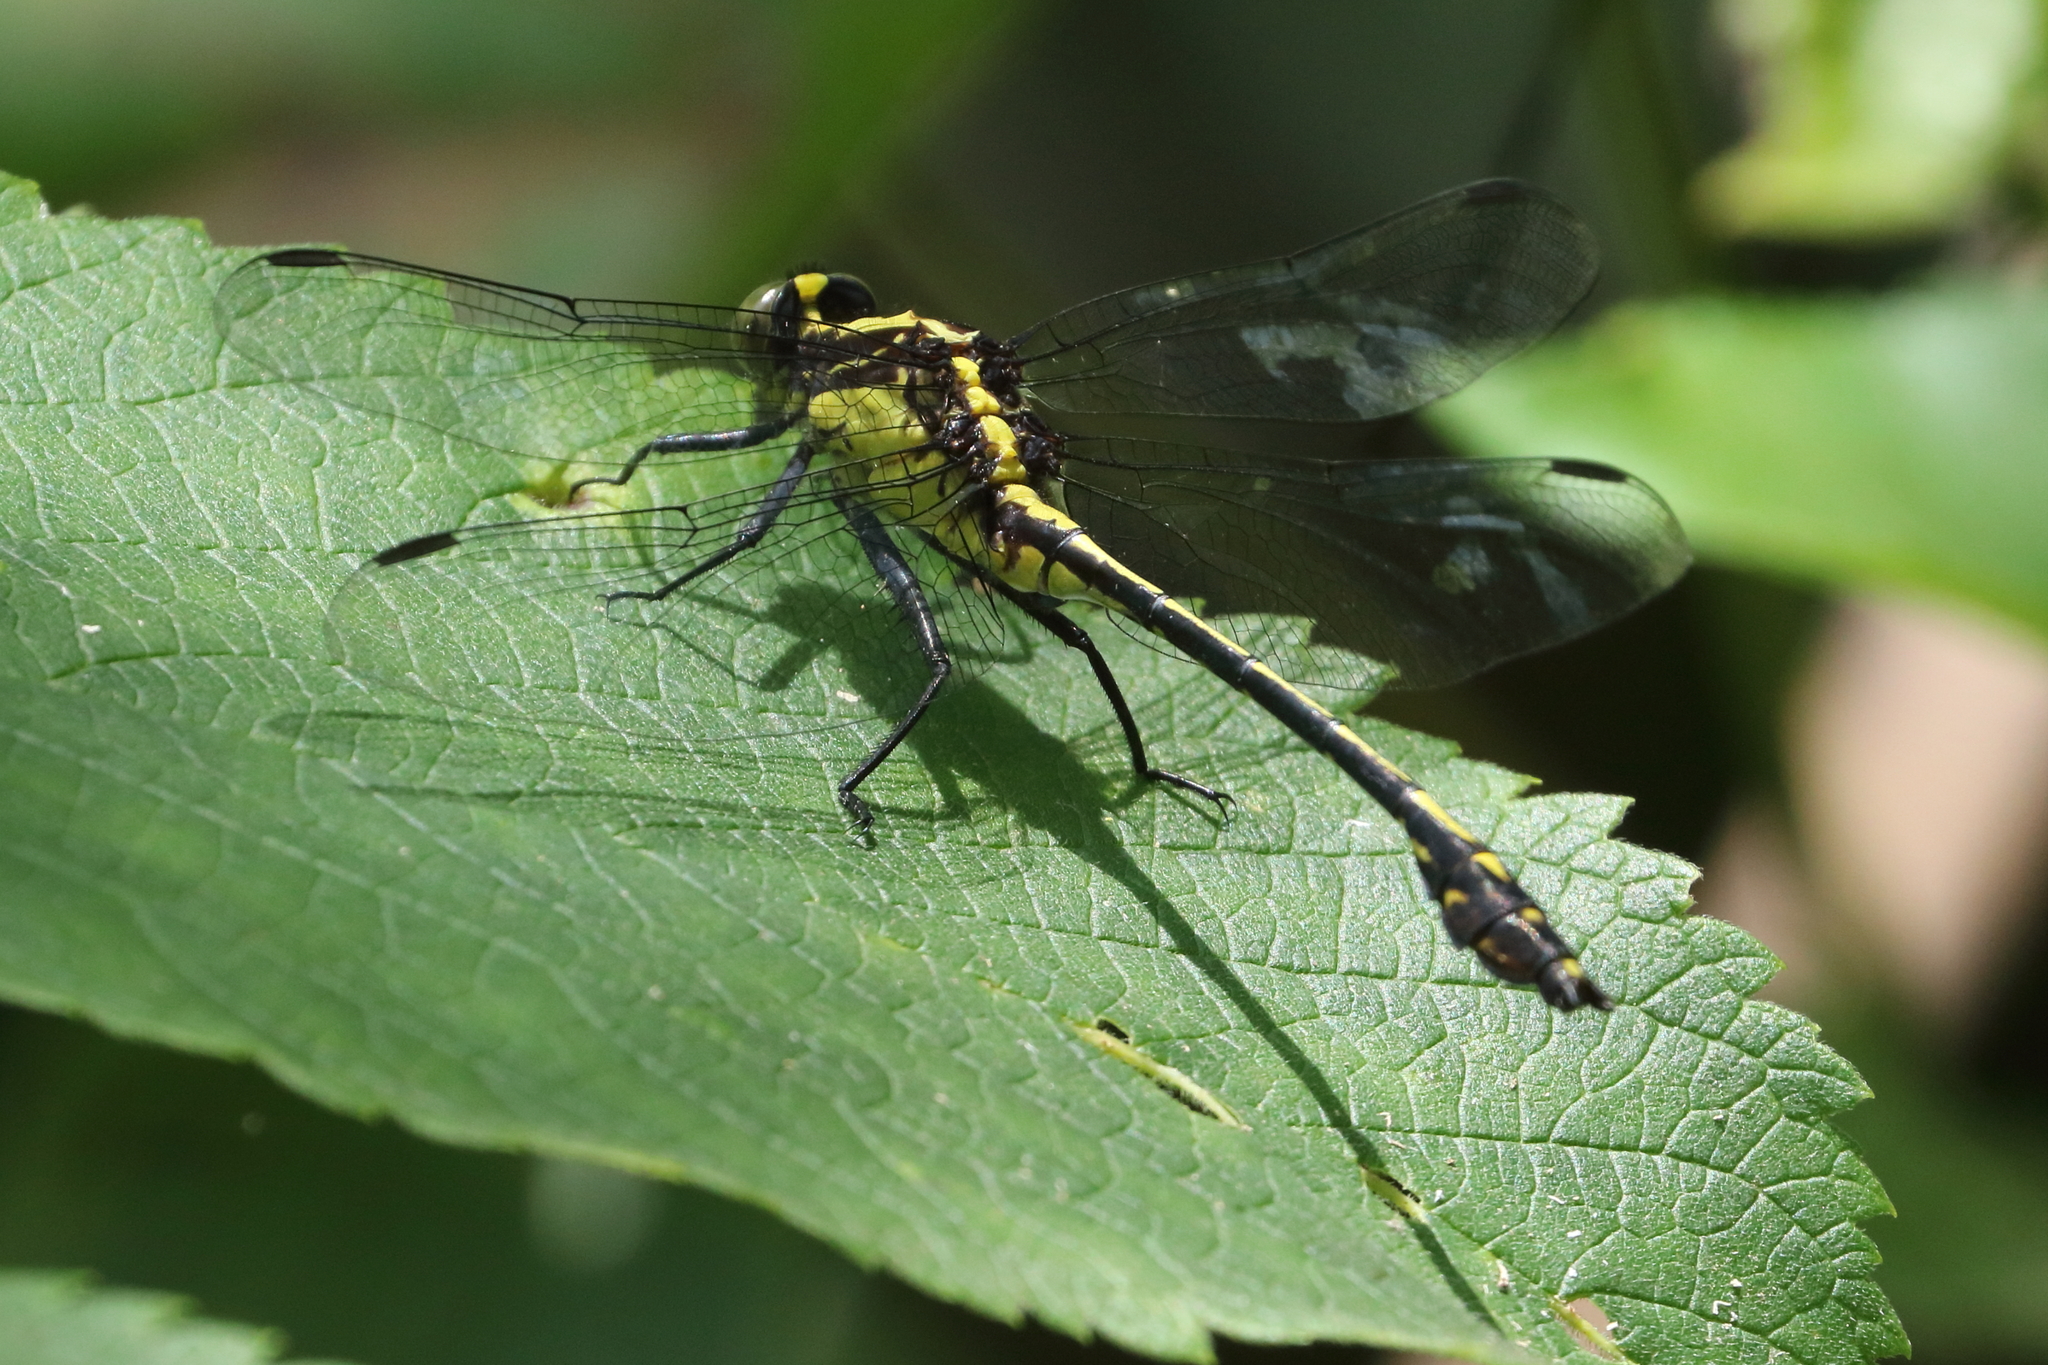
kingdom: Animalia
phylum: Arthropoda
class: Insecta
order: Odonata
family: Gomphidae
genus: Dromogomphus
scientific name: Dromogomphus spinosus
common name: Black-shouldered spinyleg
